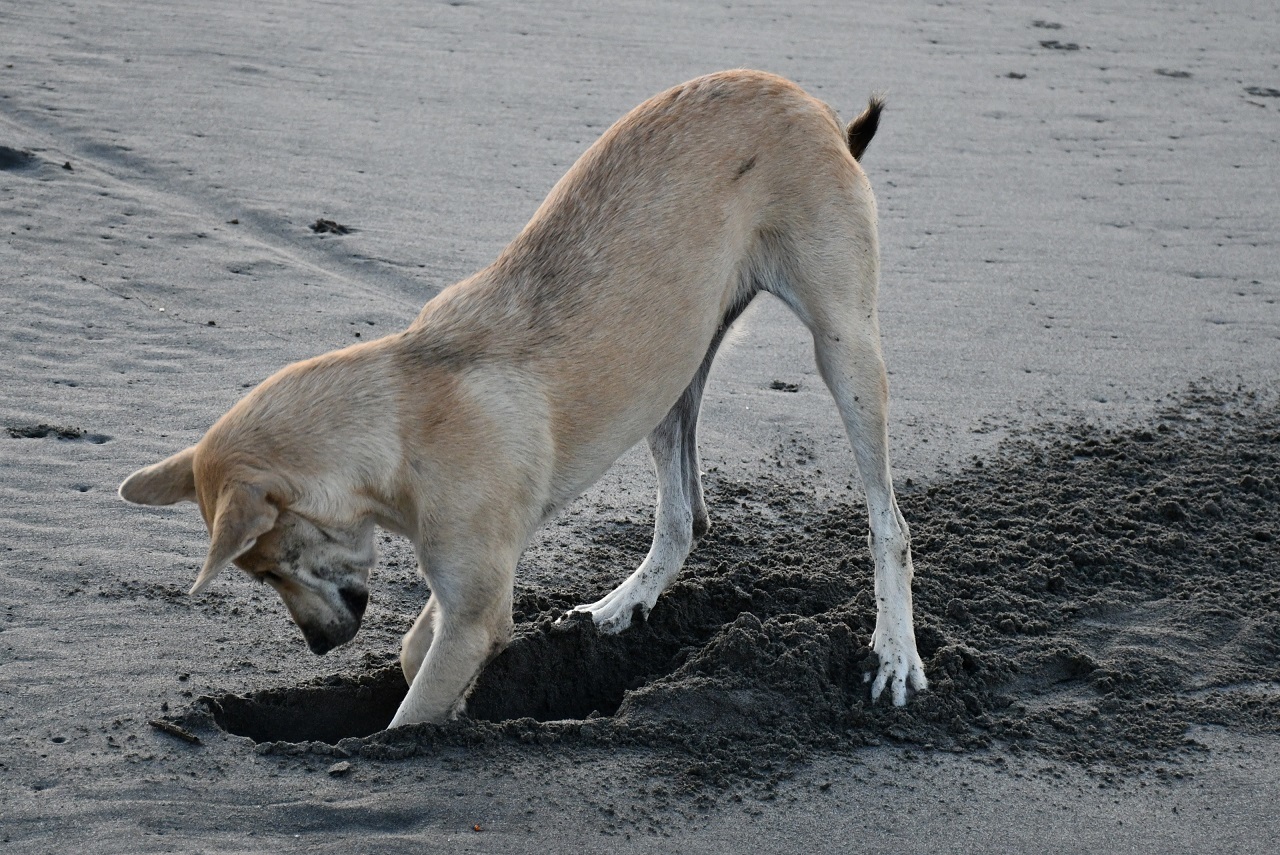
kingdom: Animalia
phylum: Chordata
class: Mammalia
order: Carnivora
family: Canidae
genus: Canis
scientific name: Canis lupus
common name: Gray wolf
